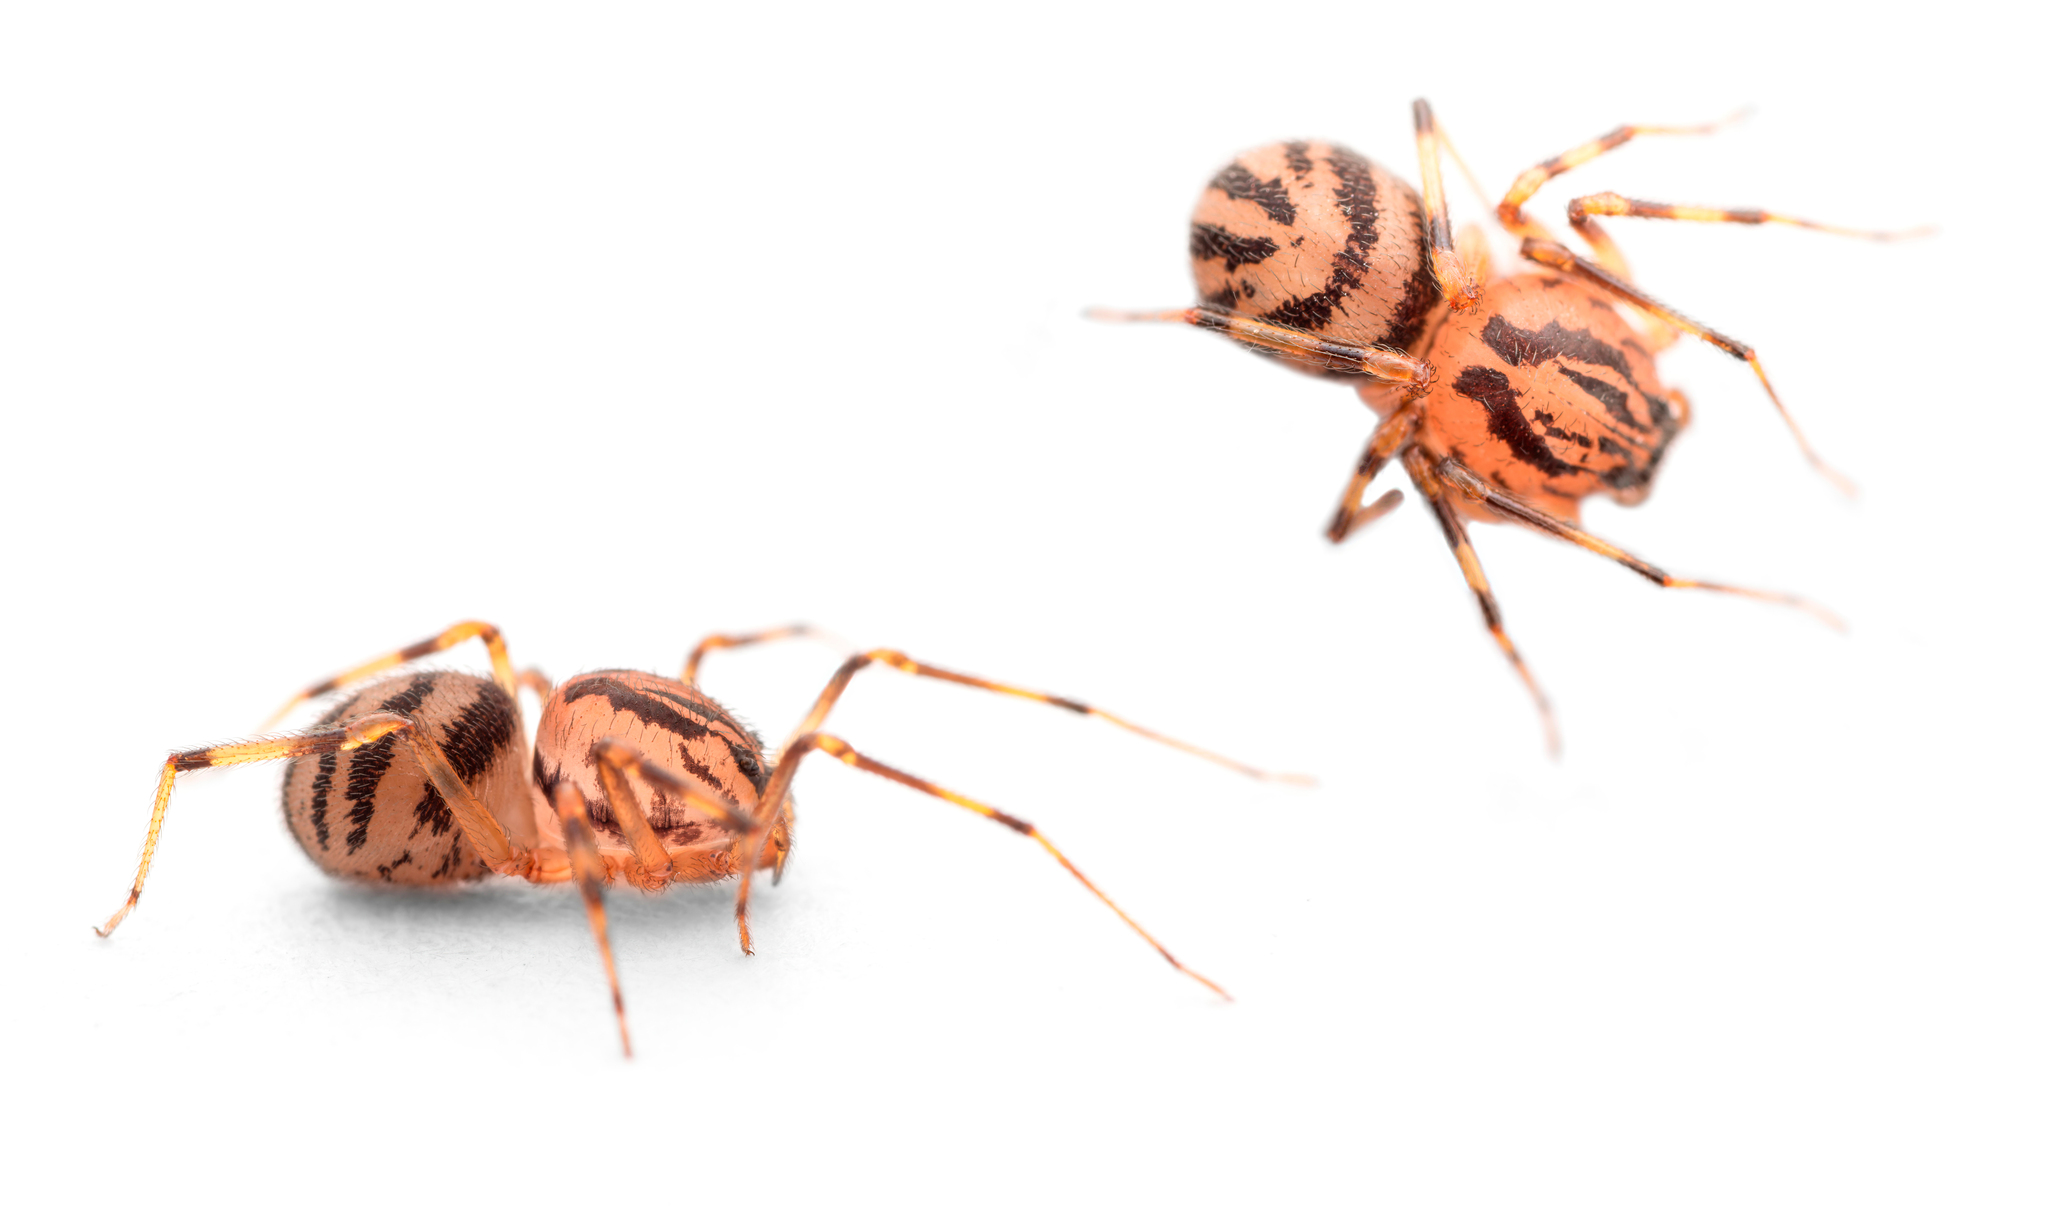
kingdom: Animalia
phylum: Arthropoda
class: Arachnida
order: Araneae
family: Scytodidae
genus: Scytodes
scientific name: Scytodes velutina
